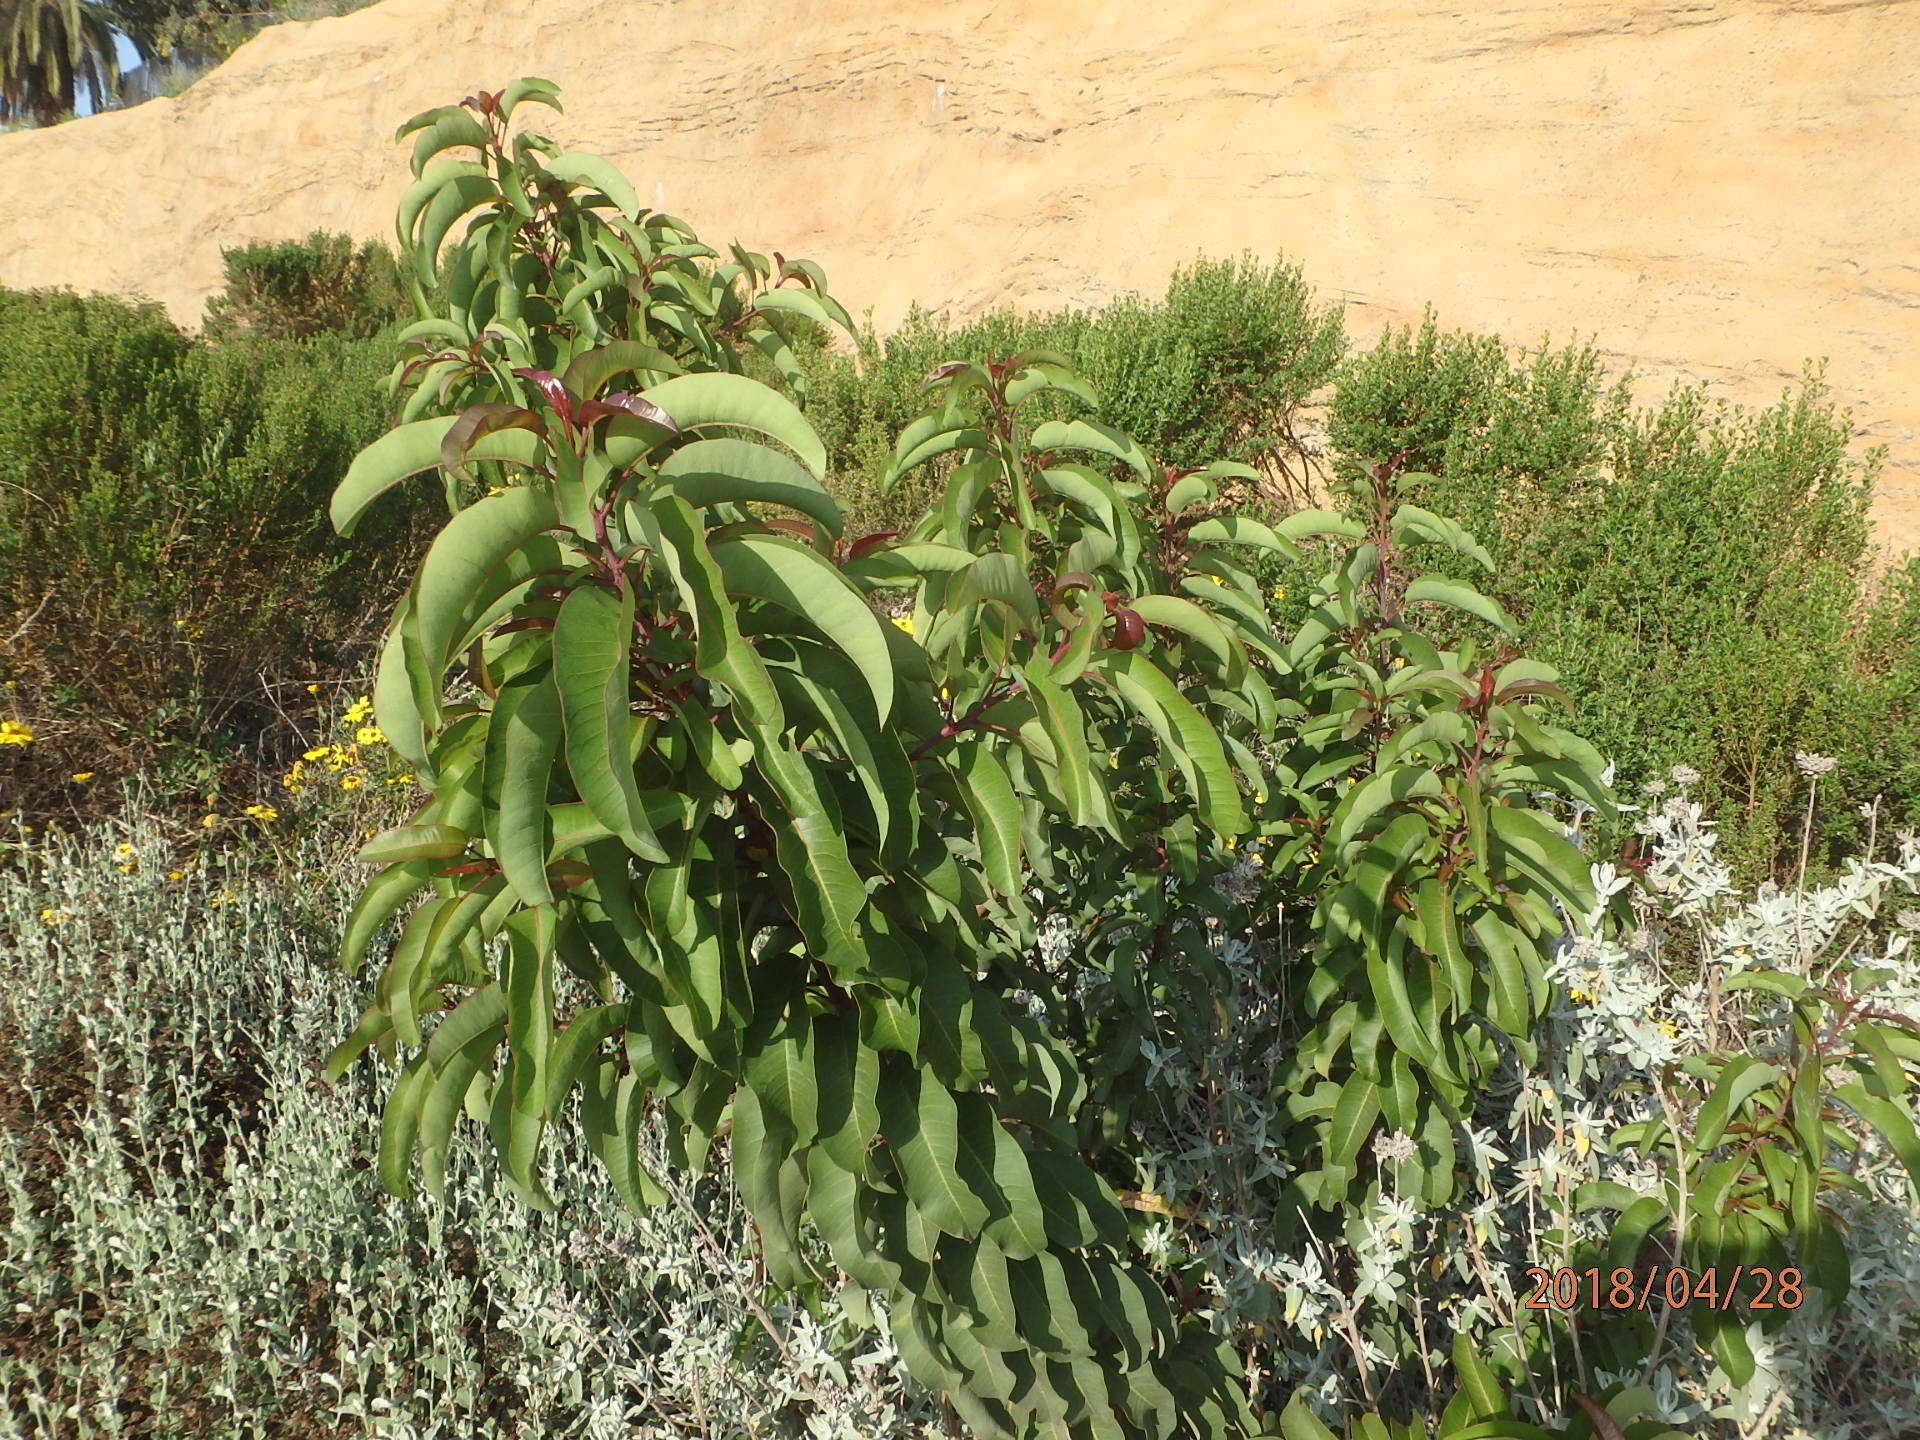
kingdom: Plantae
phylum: Tracheophyta
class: Magnoliopsida
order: Sapindales
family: Anacardiaceae
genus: Malosma
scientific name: Malosma laurina
